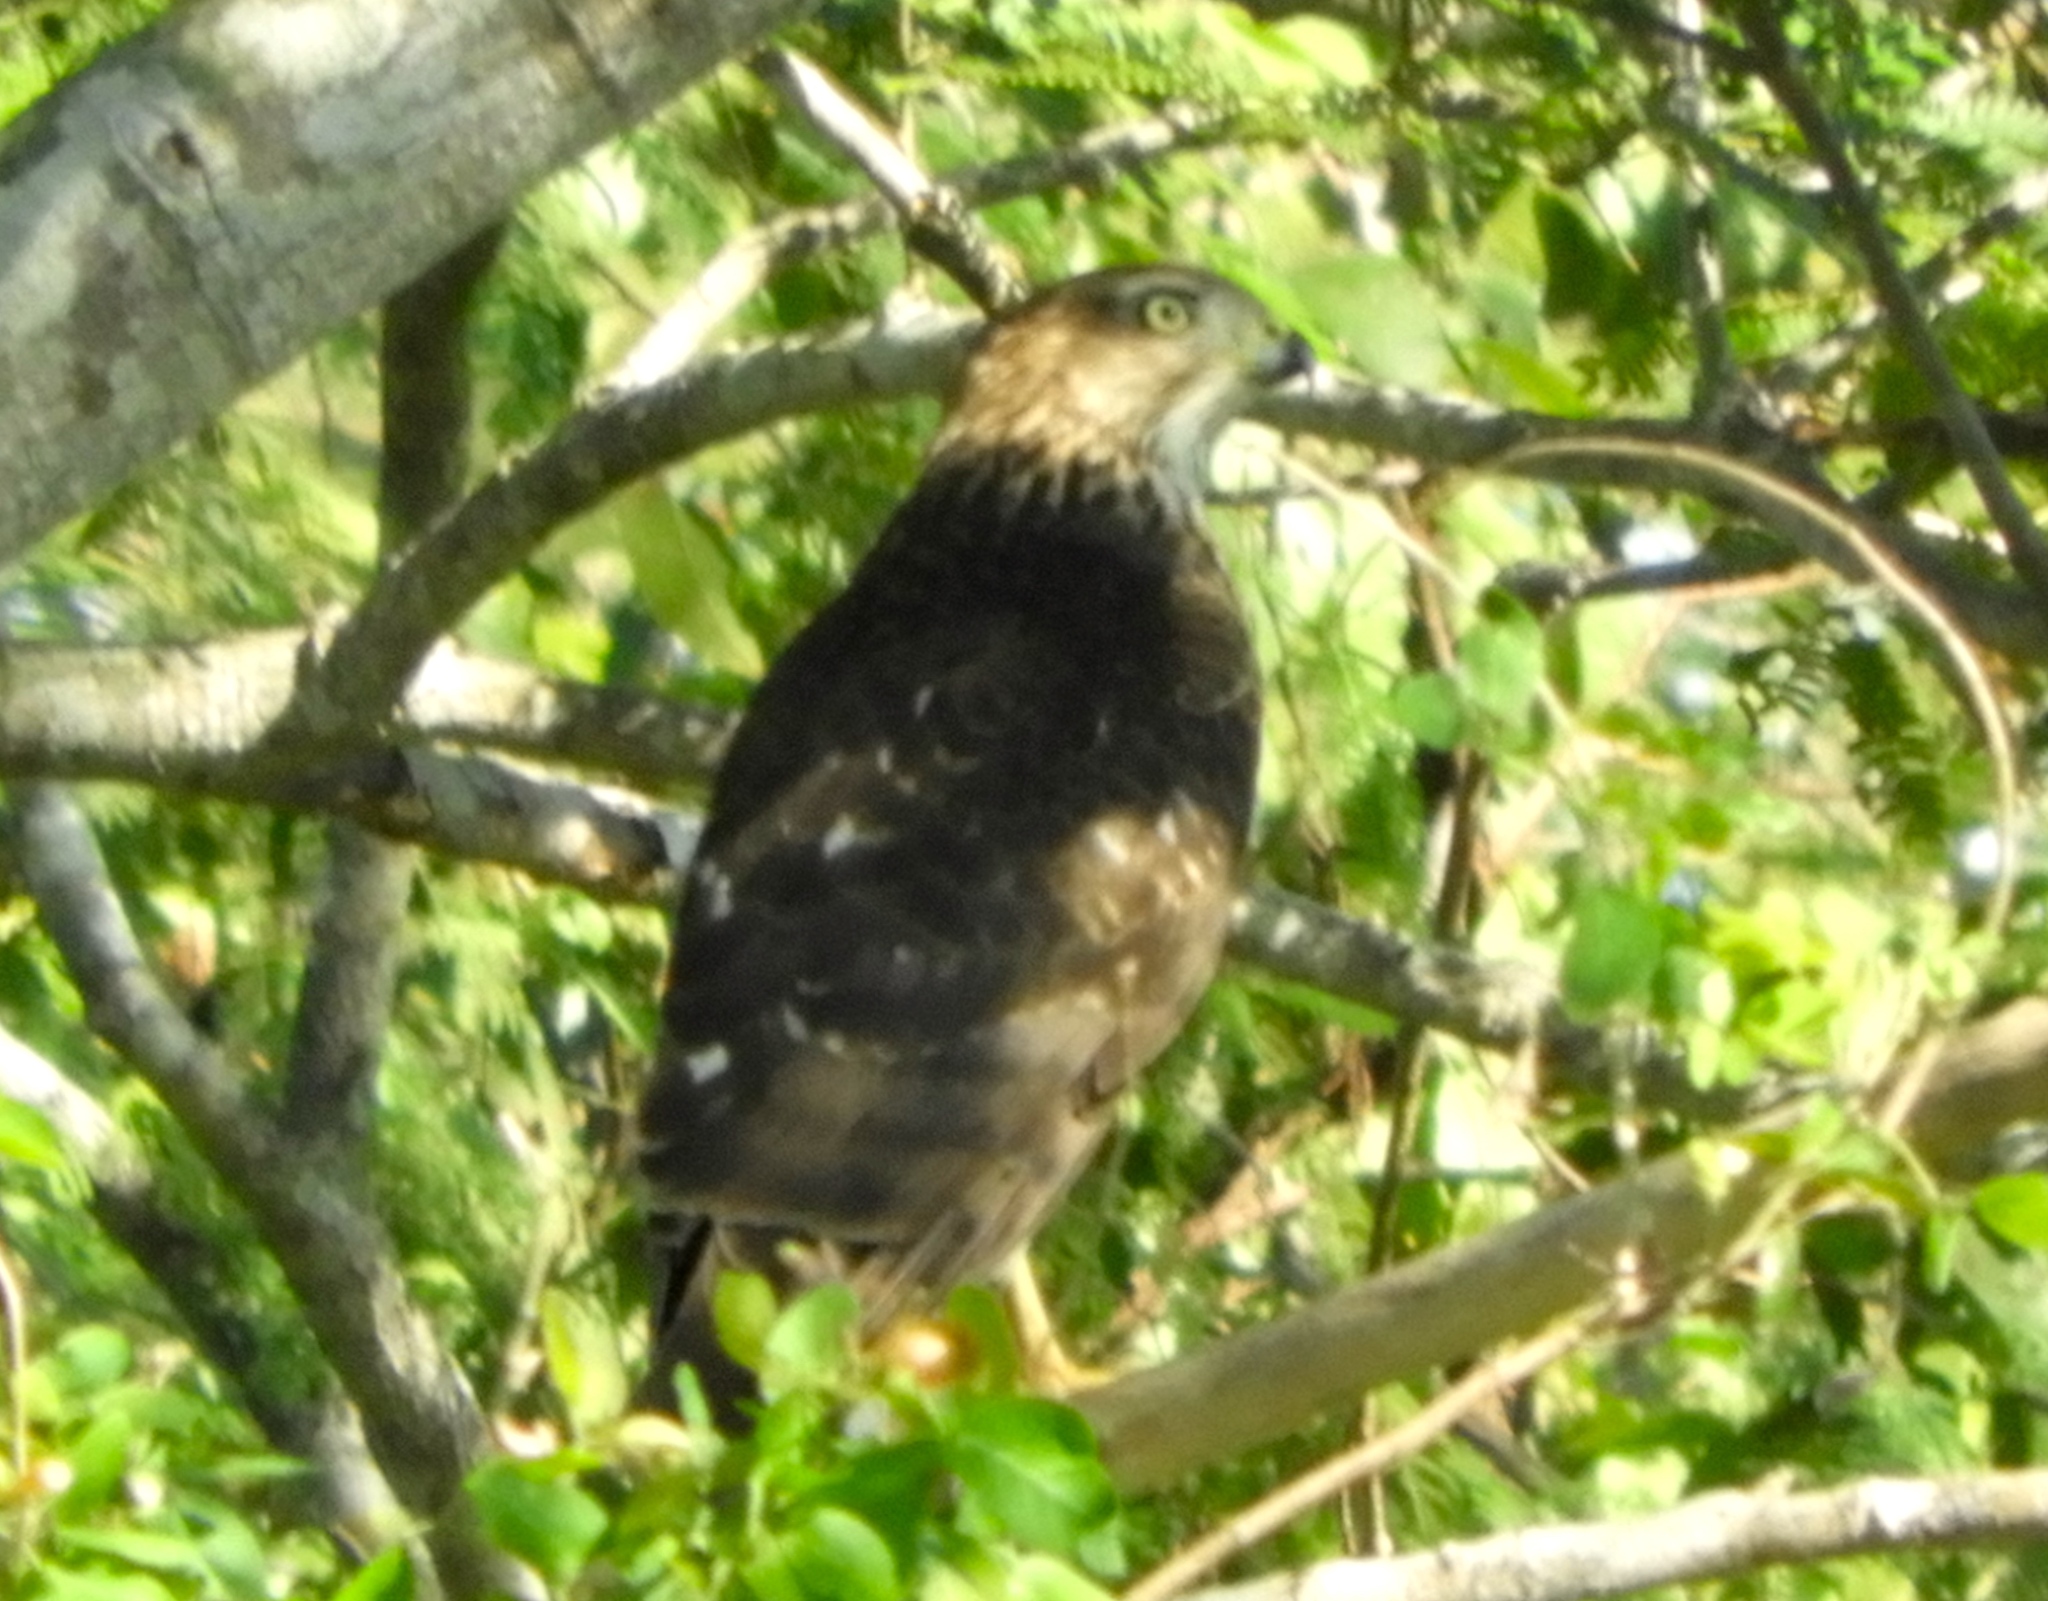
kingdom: Animalia
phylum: Chordata
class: Aves
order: Accipitriformes
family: Accipitridae
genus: Accipiter
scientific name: Accipiter cooperii
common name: Cooper's hawk
